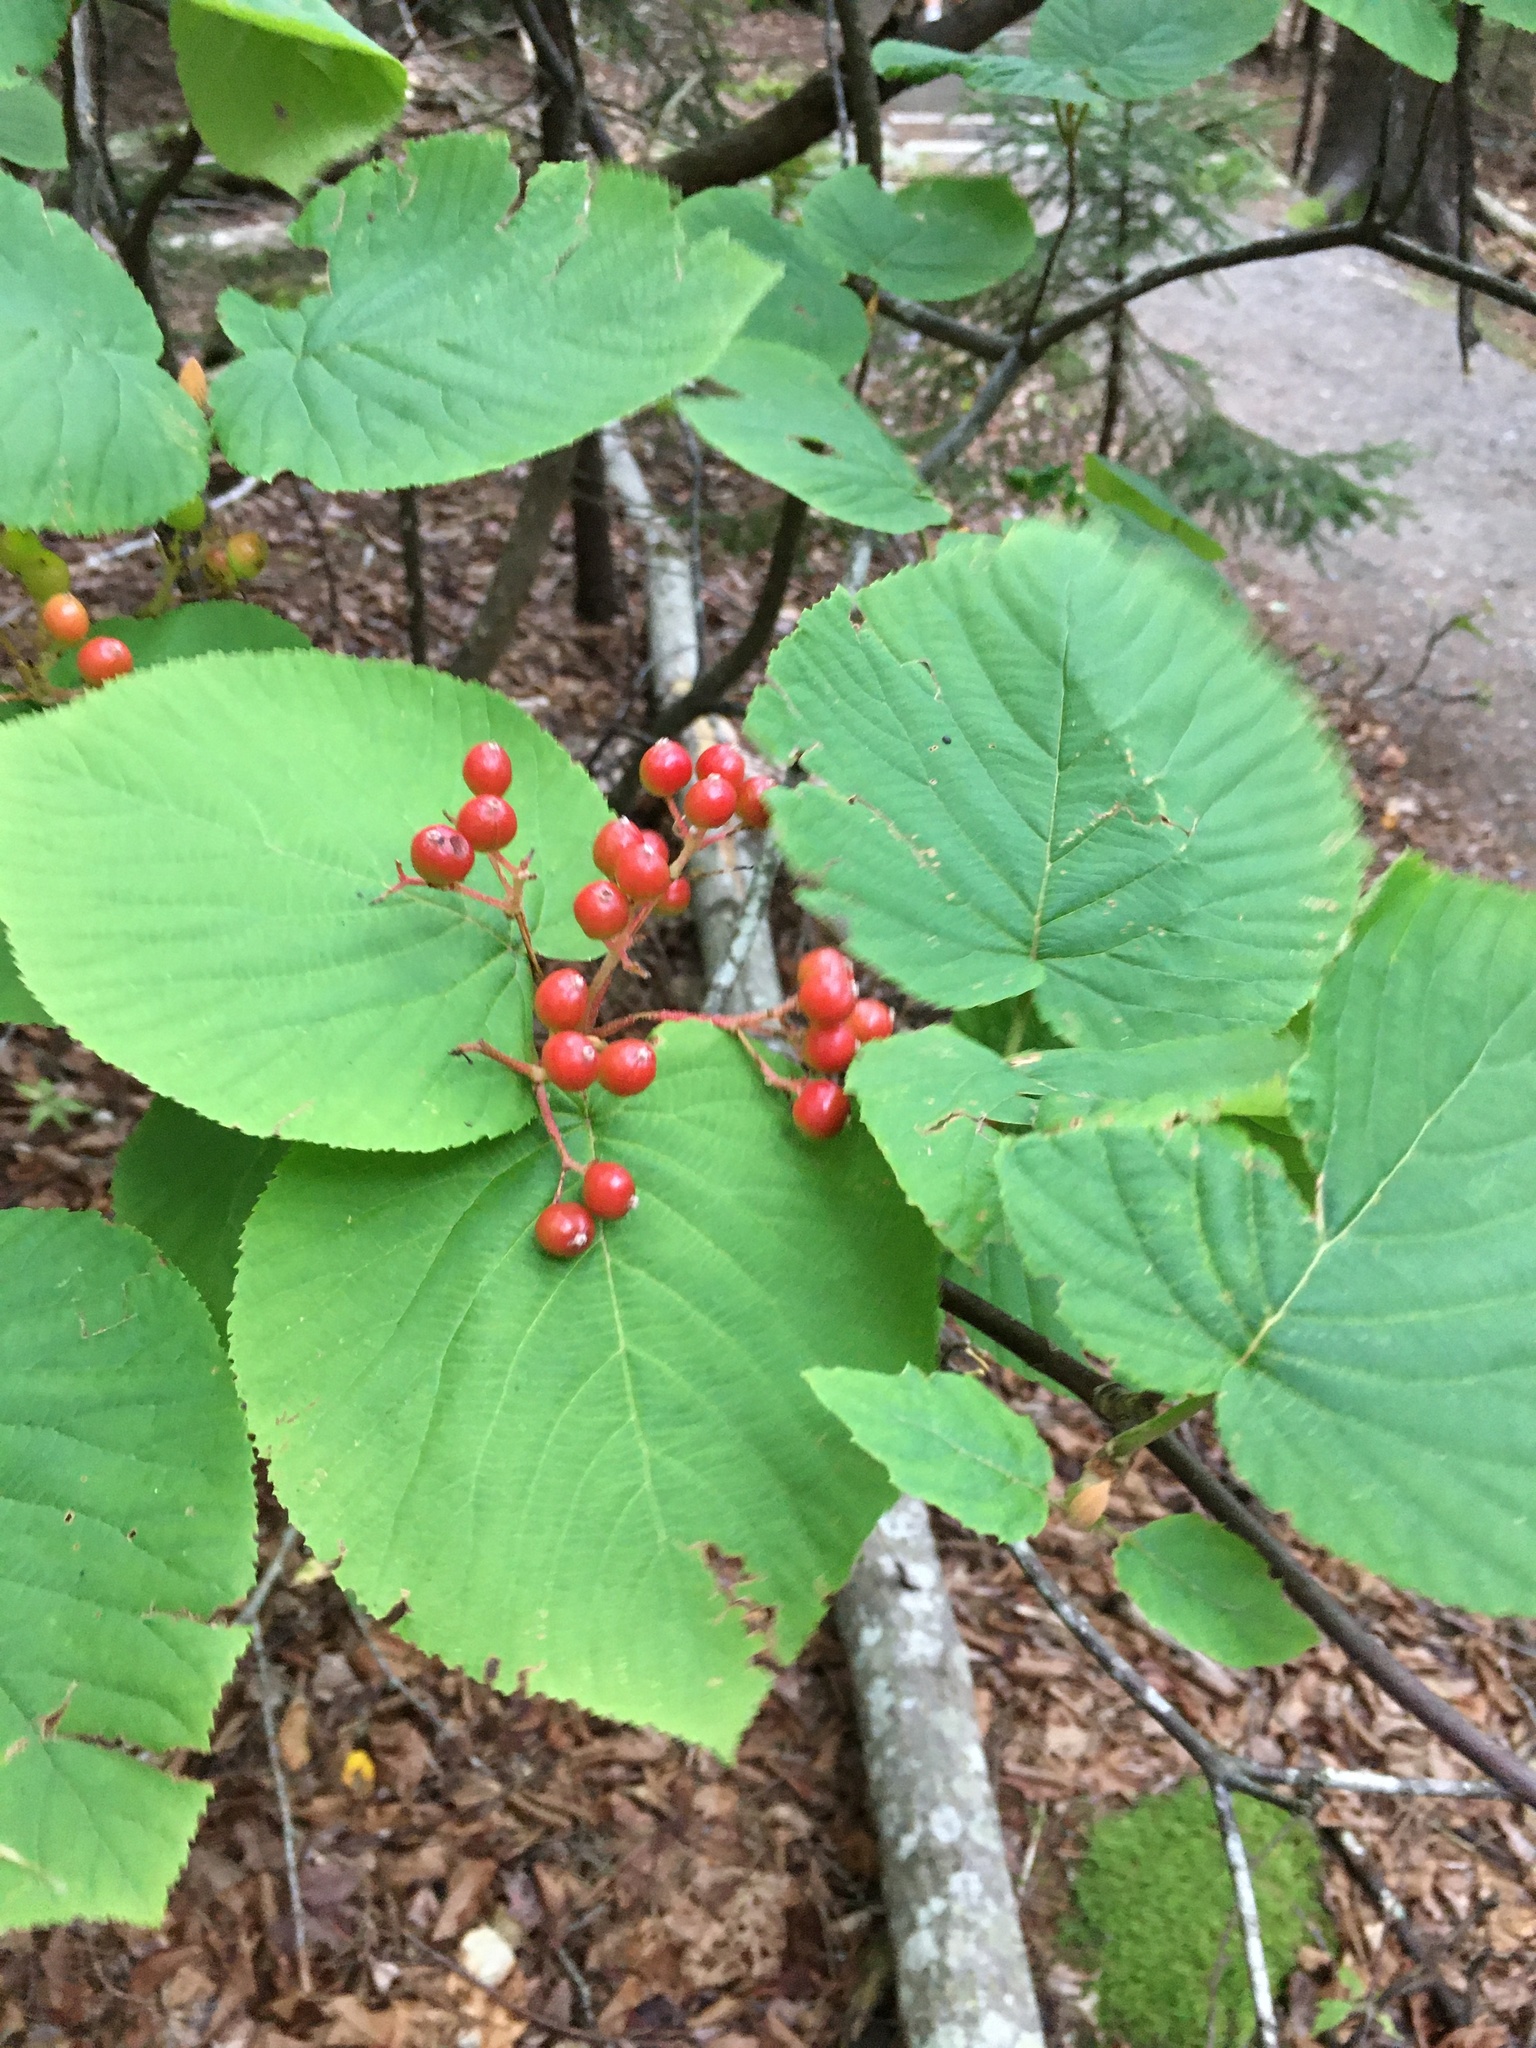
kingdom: Plantae
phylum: Tracheophyta
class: Magnoliopsida
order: Dipsacales
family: Viburnaceae
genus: Viburnum
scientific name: Viburnum lantanoides
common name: Hobblebush
